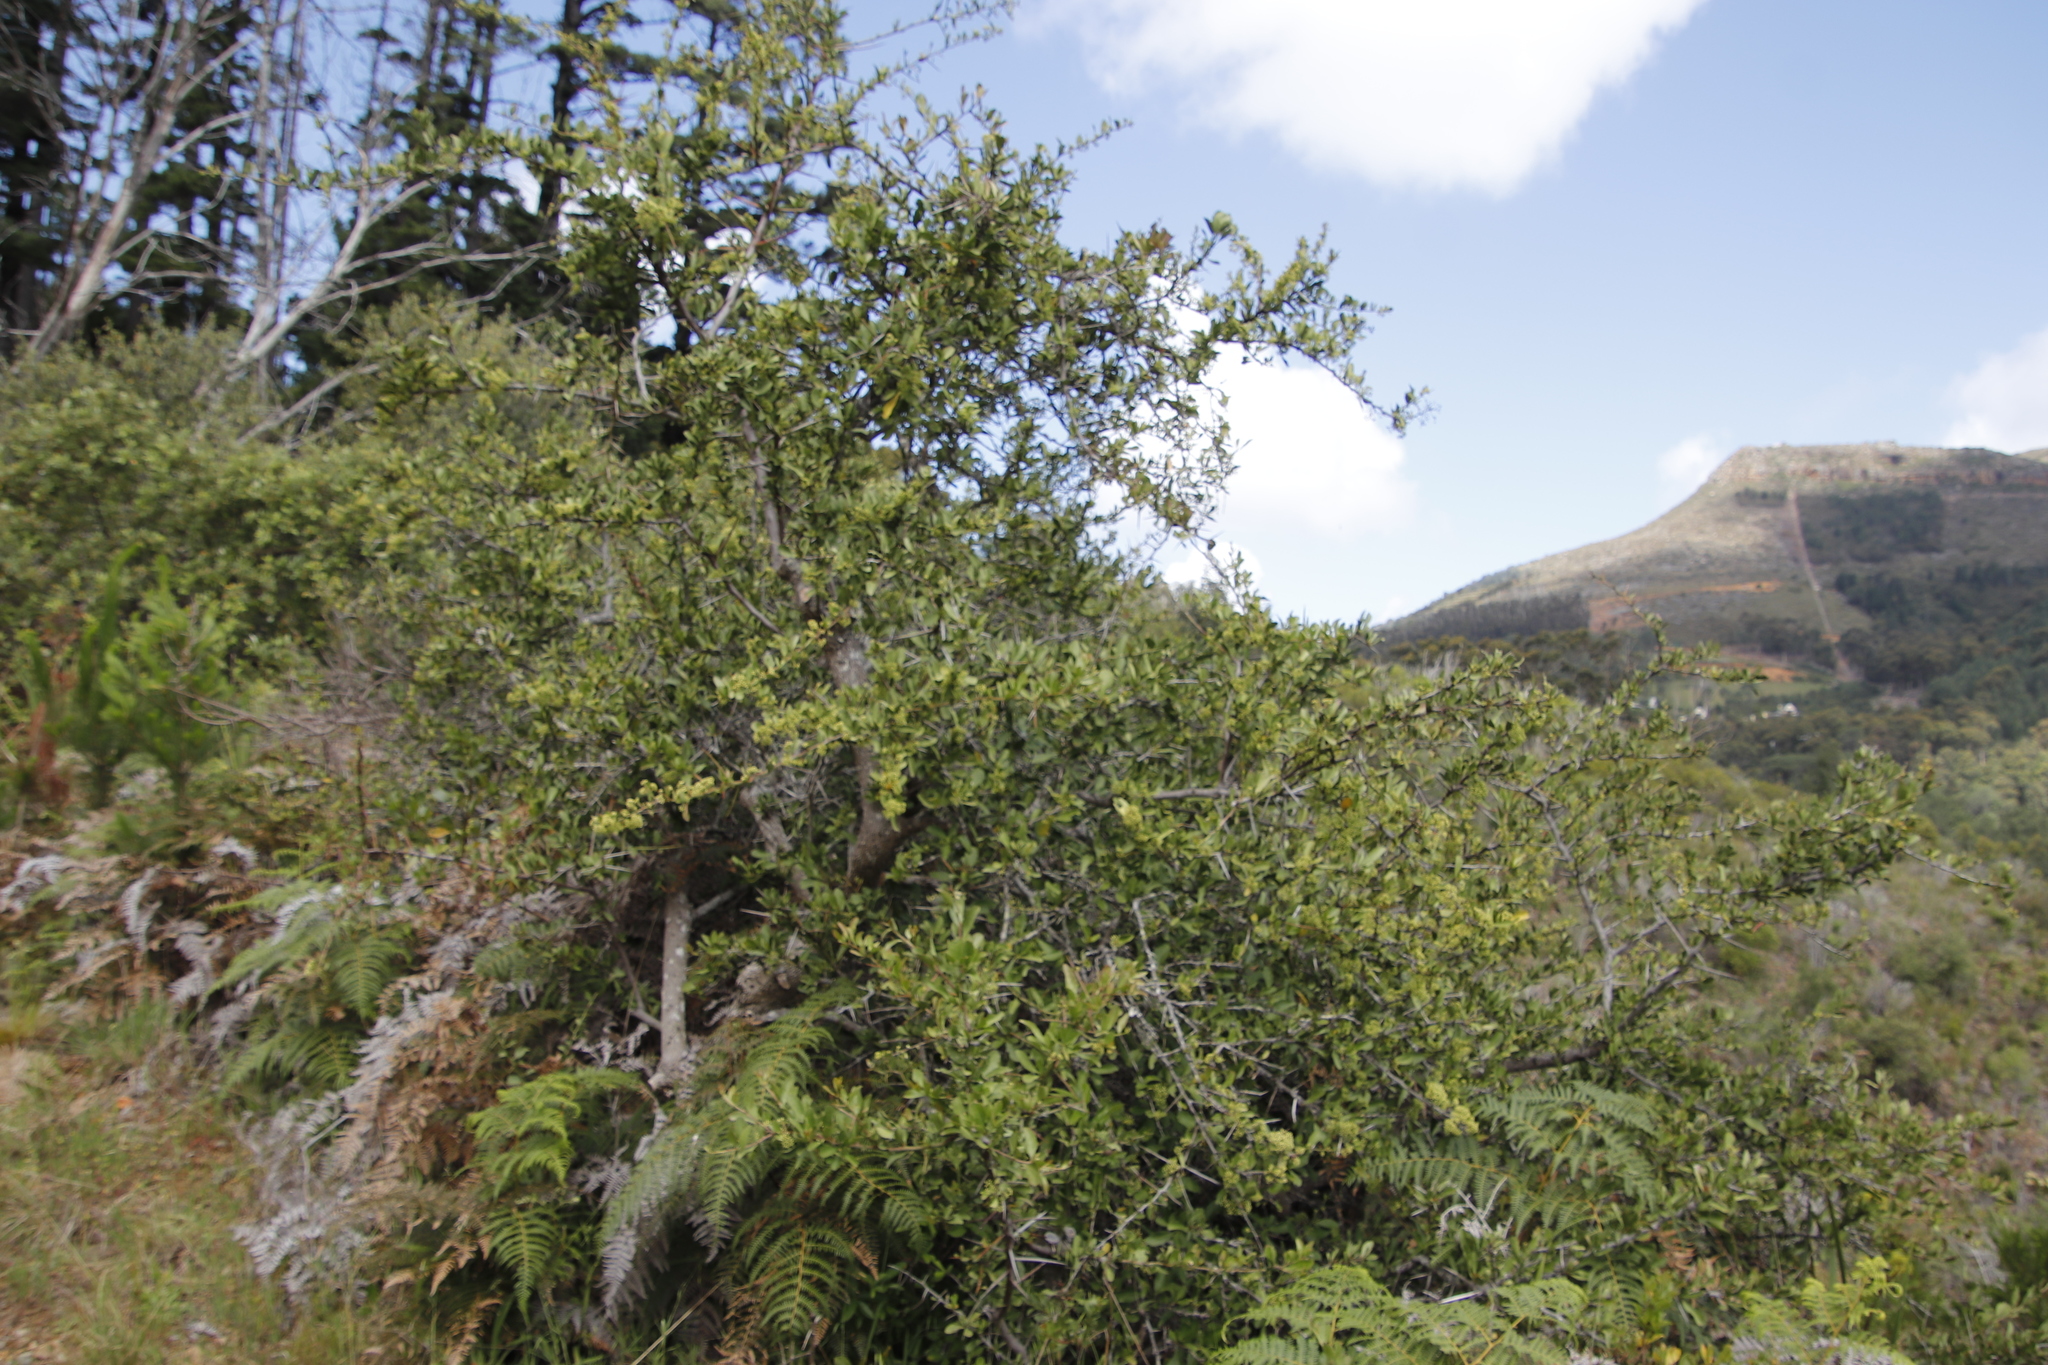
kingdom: Plantae
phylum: Tracheophyta
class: Magnoliopsida
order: Celastrales
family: Celastraceae
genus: Gymnosporia
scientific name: Gymnosporia buxifolia
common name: Common spike-thorn
